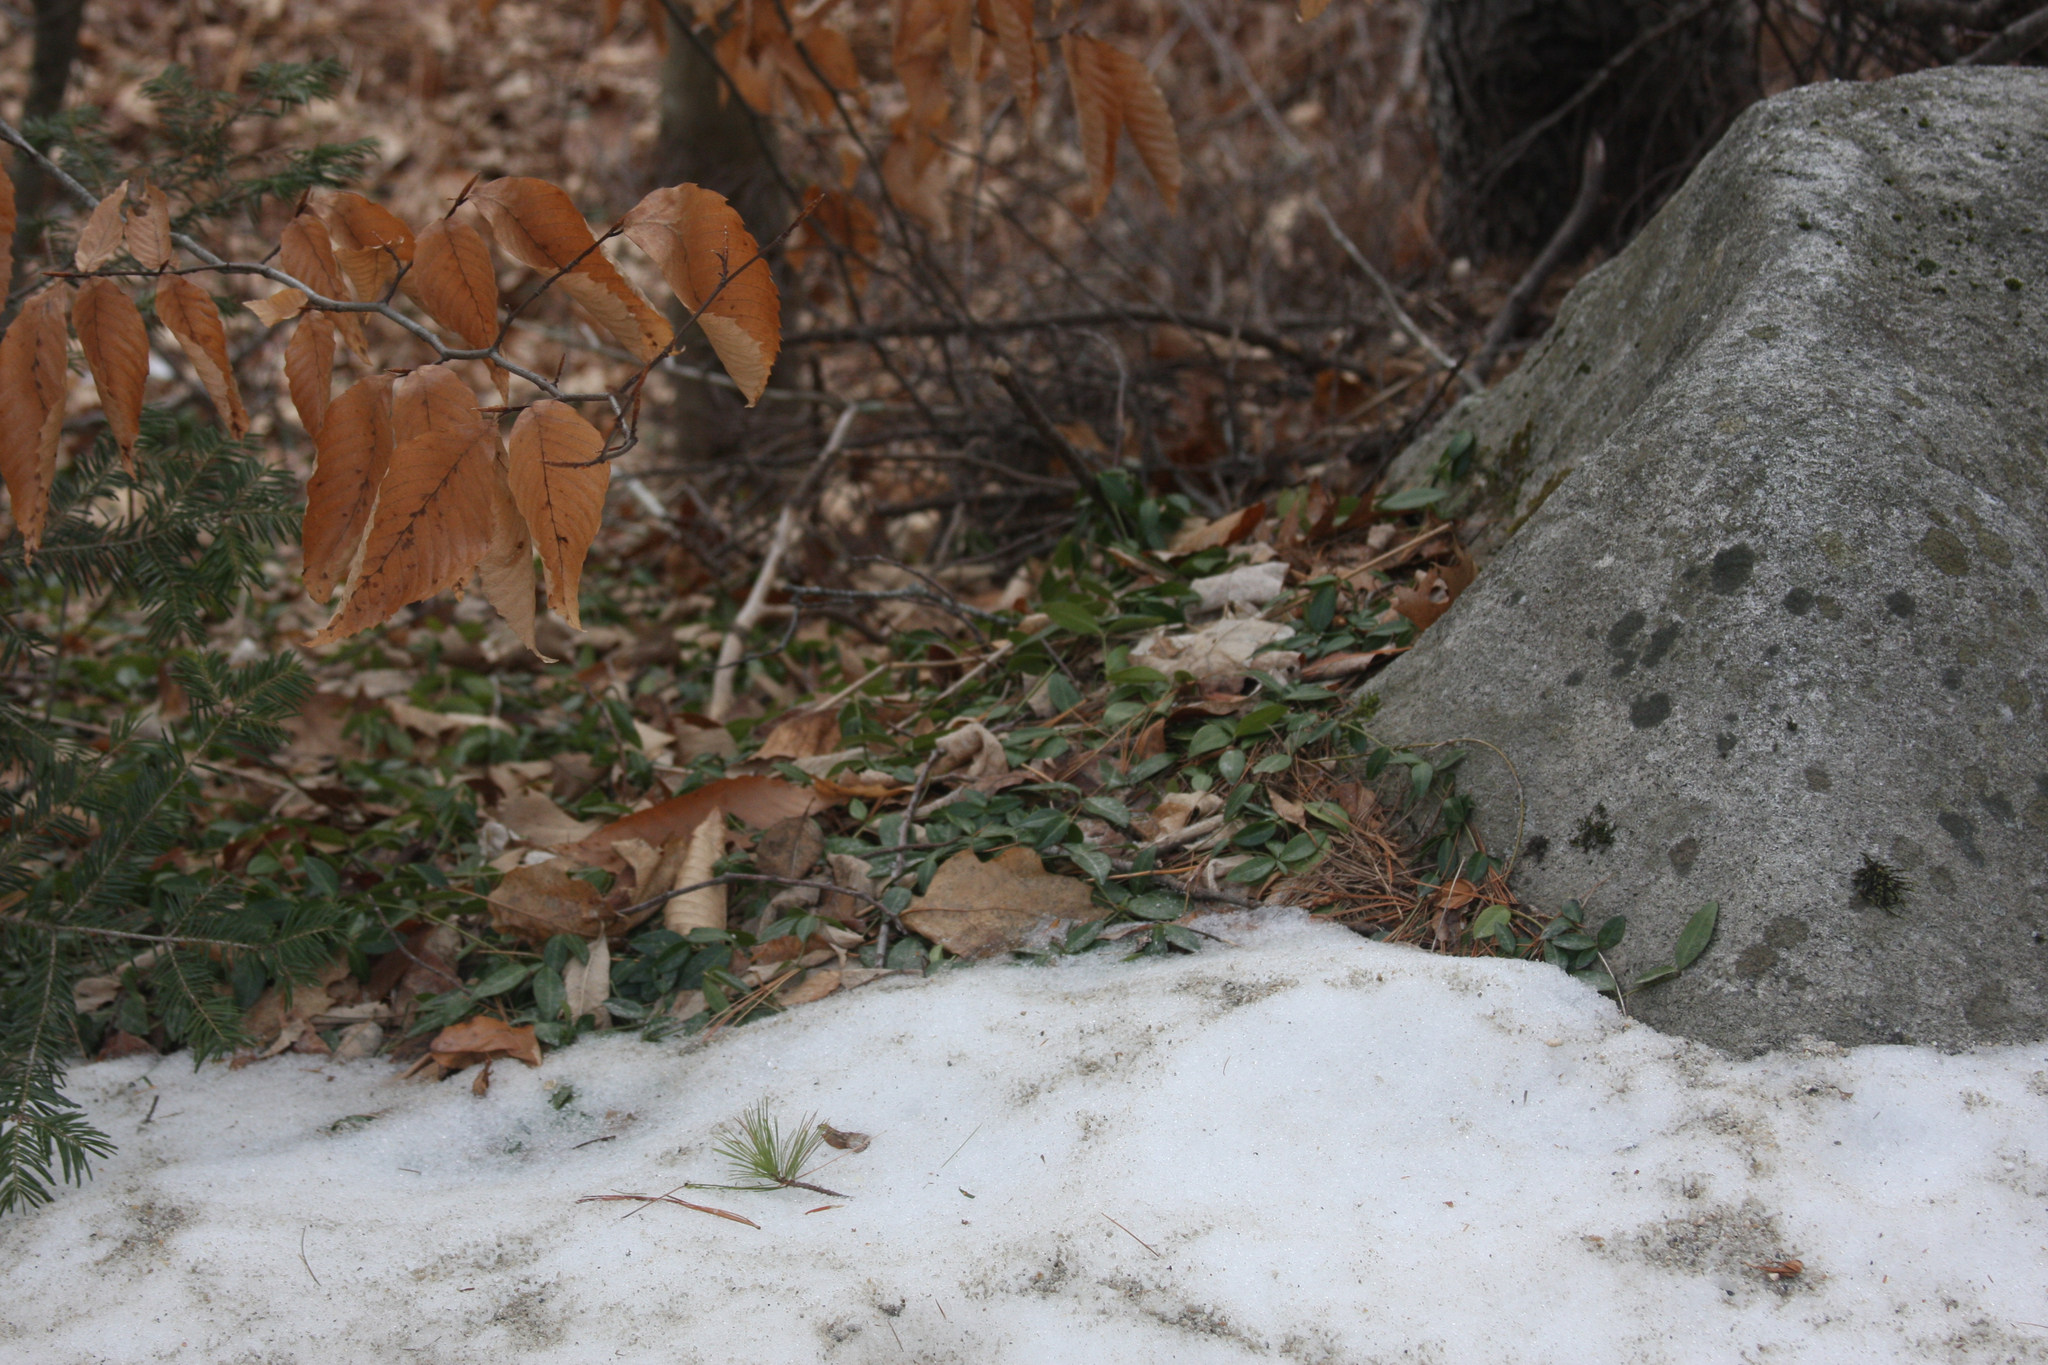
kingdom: Plantae
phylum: Tracheophyta
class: Magnoliopsida
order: Fagales
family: Fagaceae
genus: Fagus
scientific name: Fagus grandifolia
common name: American beech
